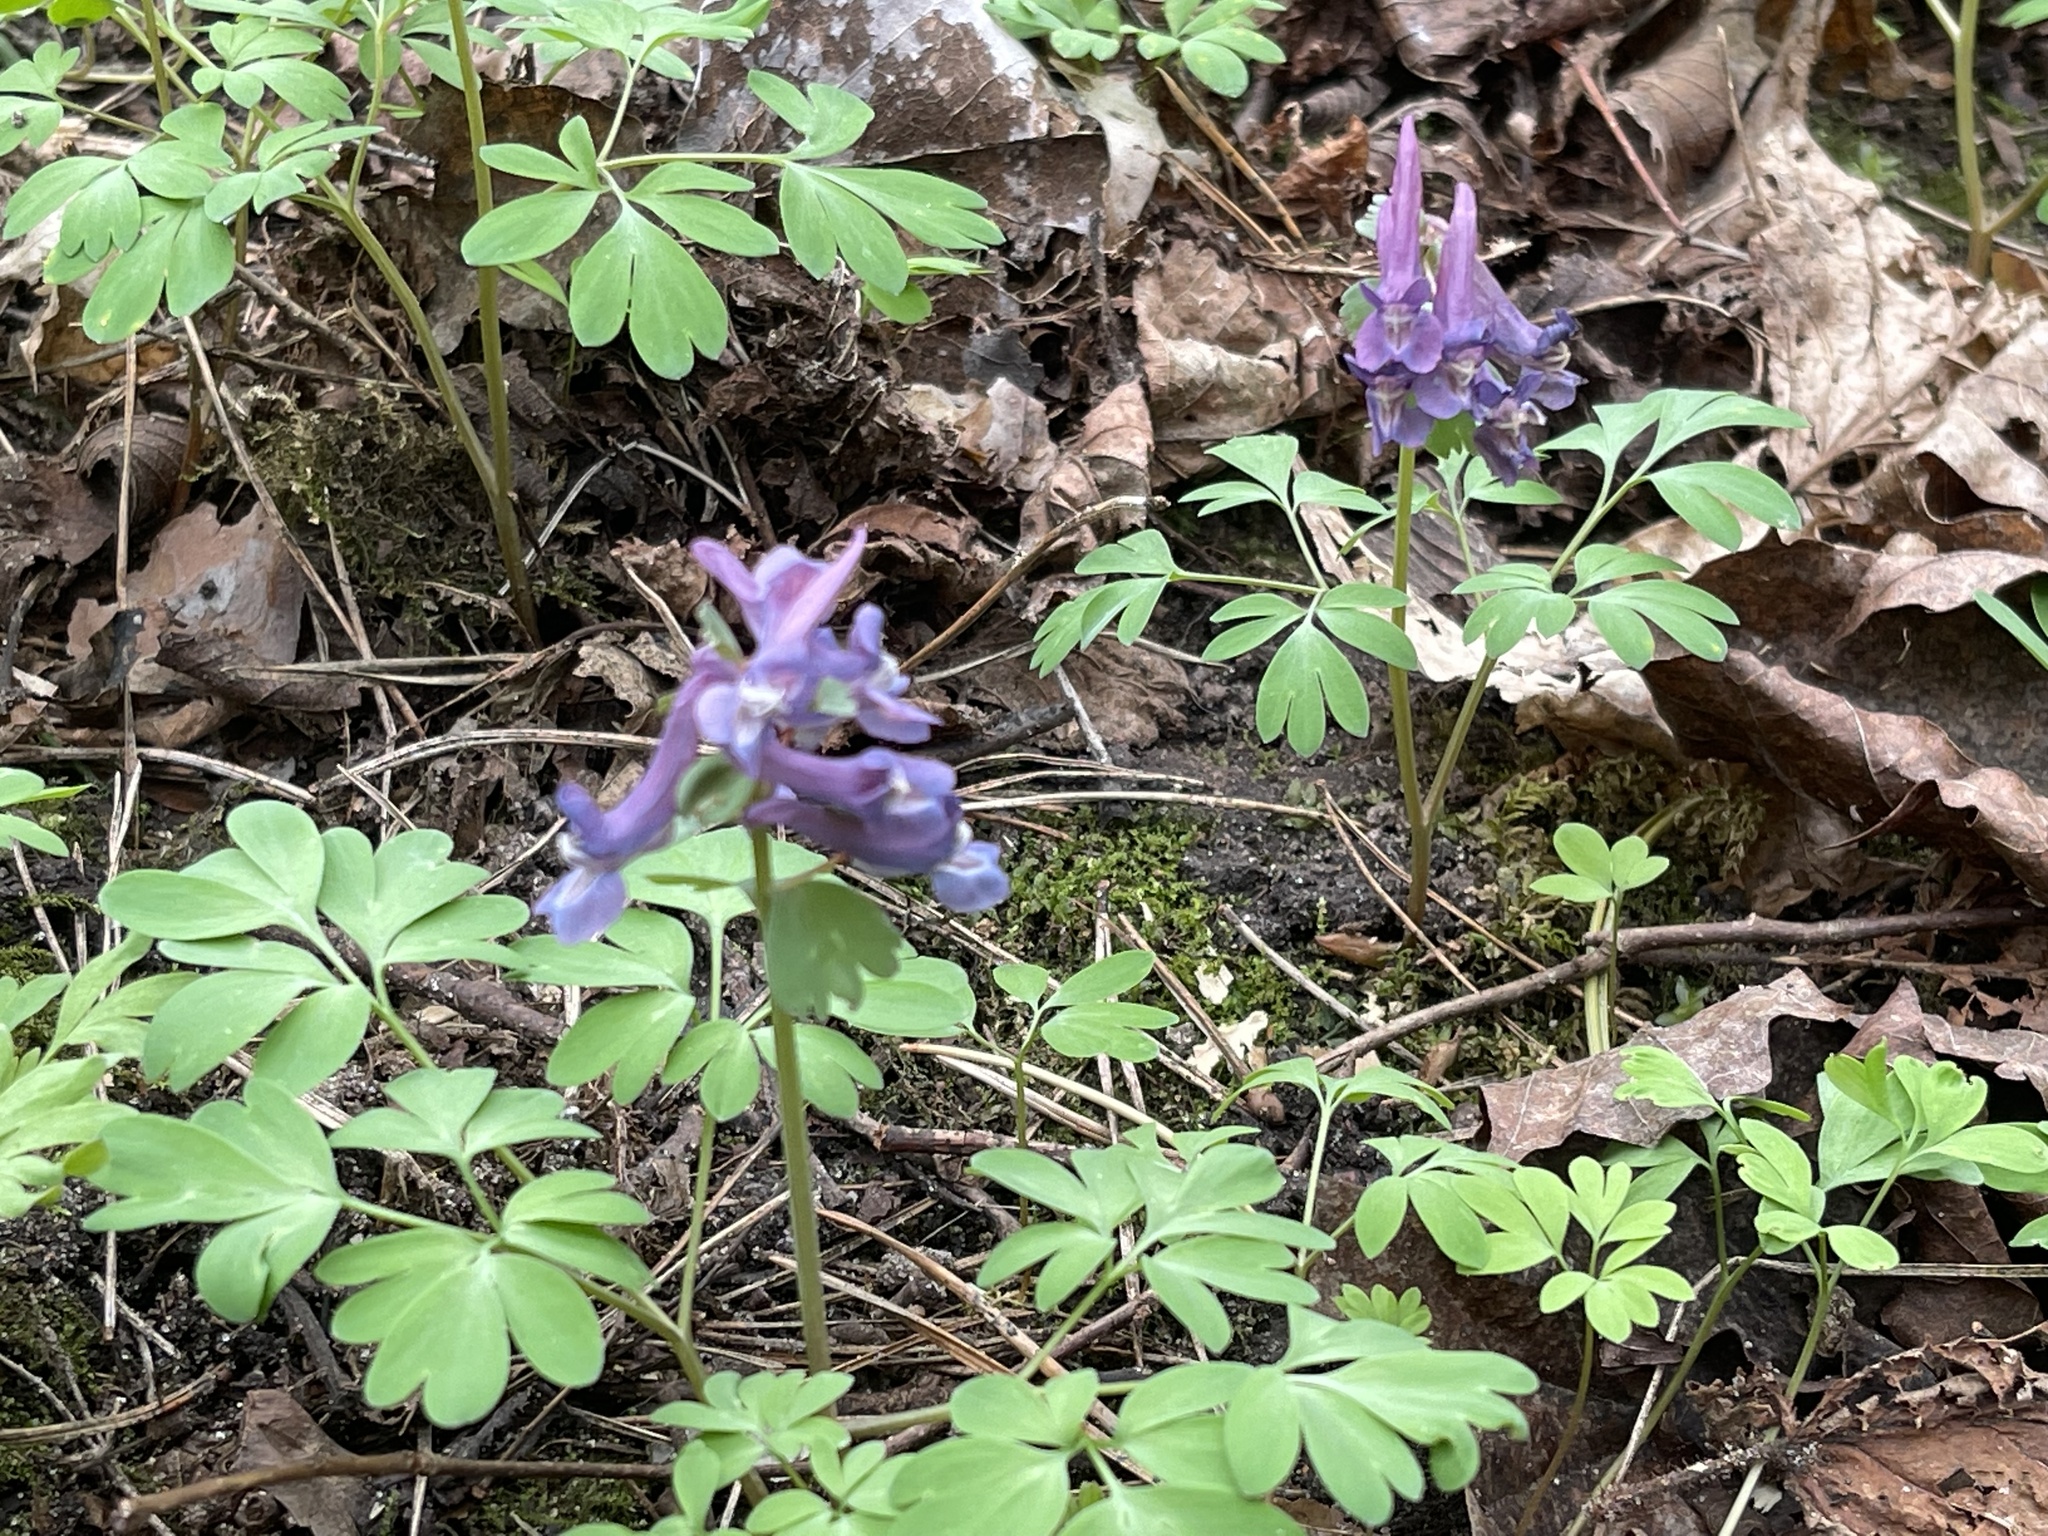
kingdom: Plantae
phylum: Tracheophyta
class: Magnoliopsida
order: Ranunculales
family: Papaveraceae
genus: Corydalis
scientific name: Corydalis solida
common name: Bird-in-a-bush
